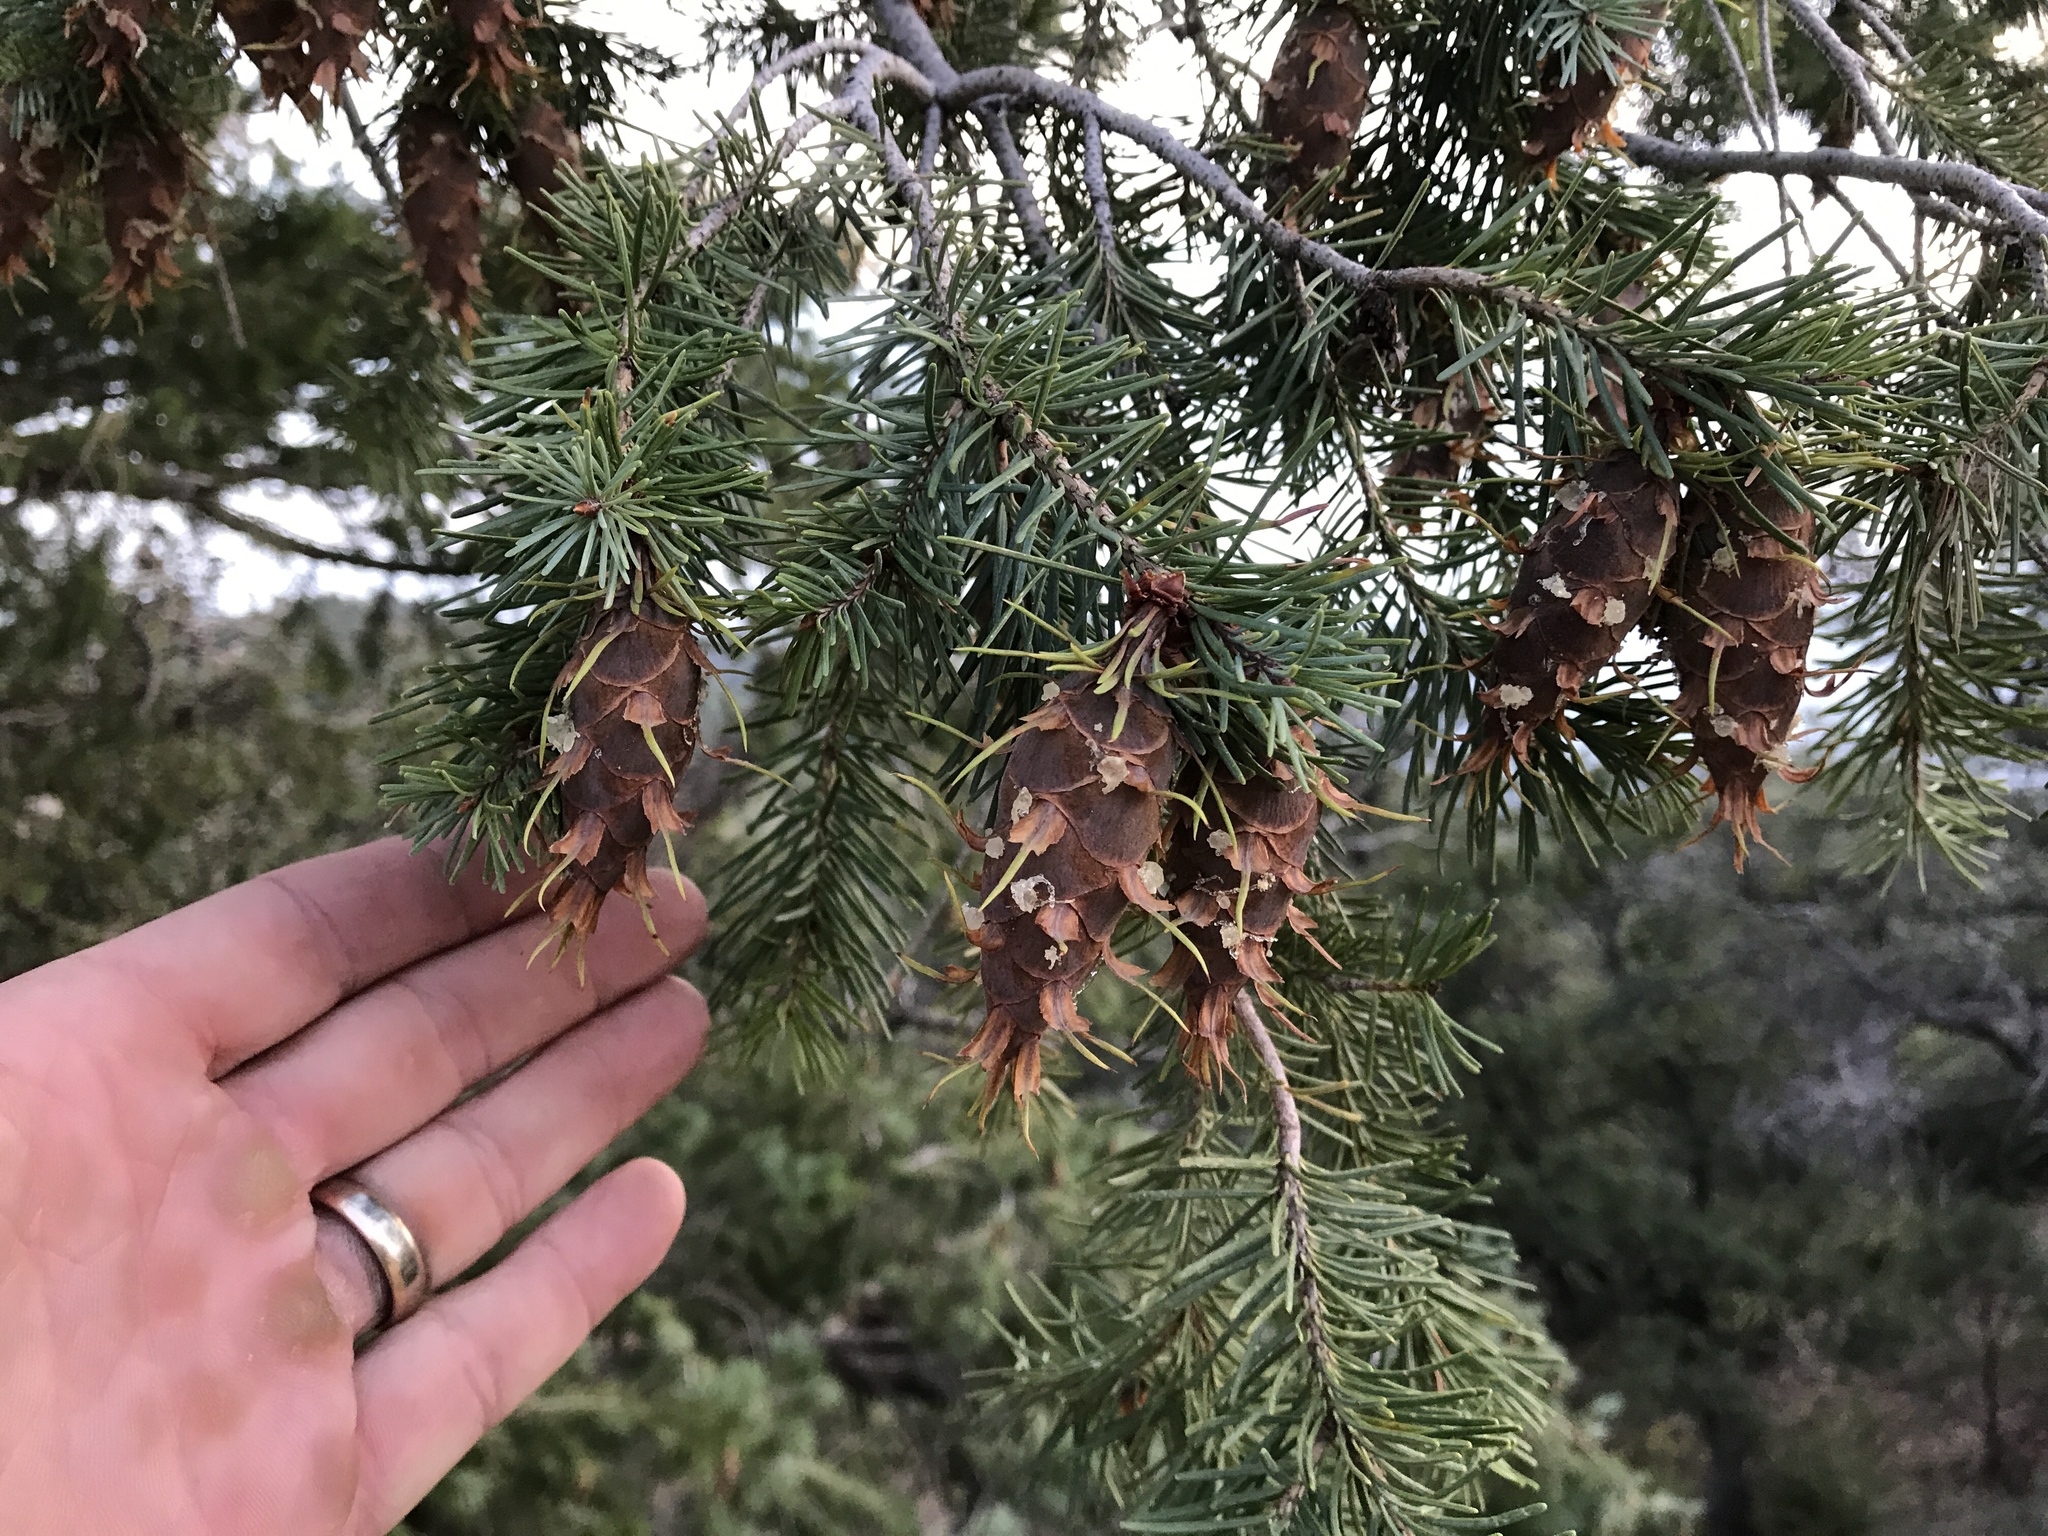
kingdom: Plantae
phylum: Tracheophyta
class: Pinopsida
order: Pinales
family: Pinaceae
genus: Pseudotsuga
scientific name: Pseudotsuga menziesii
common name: Douglas fir
